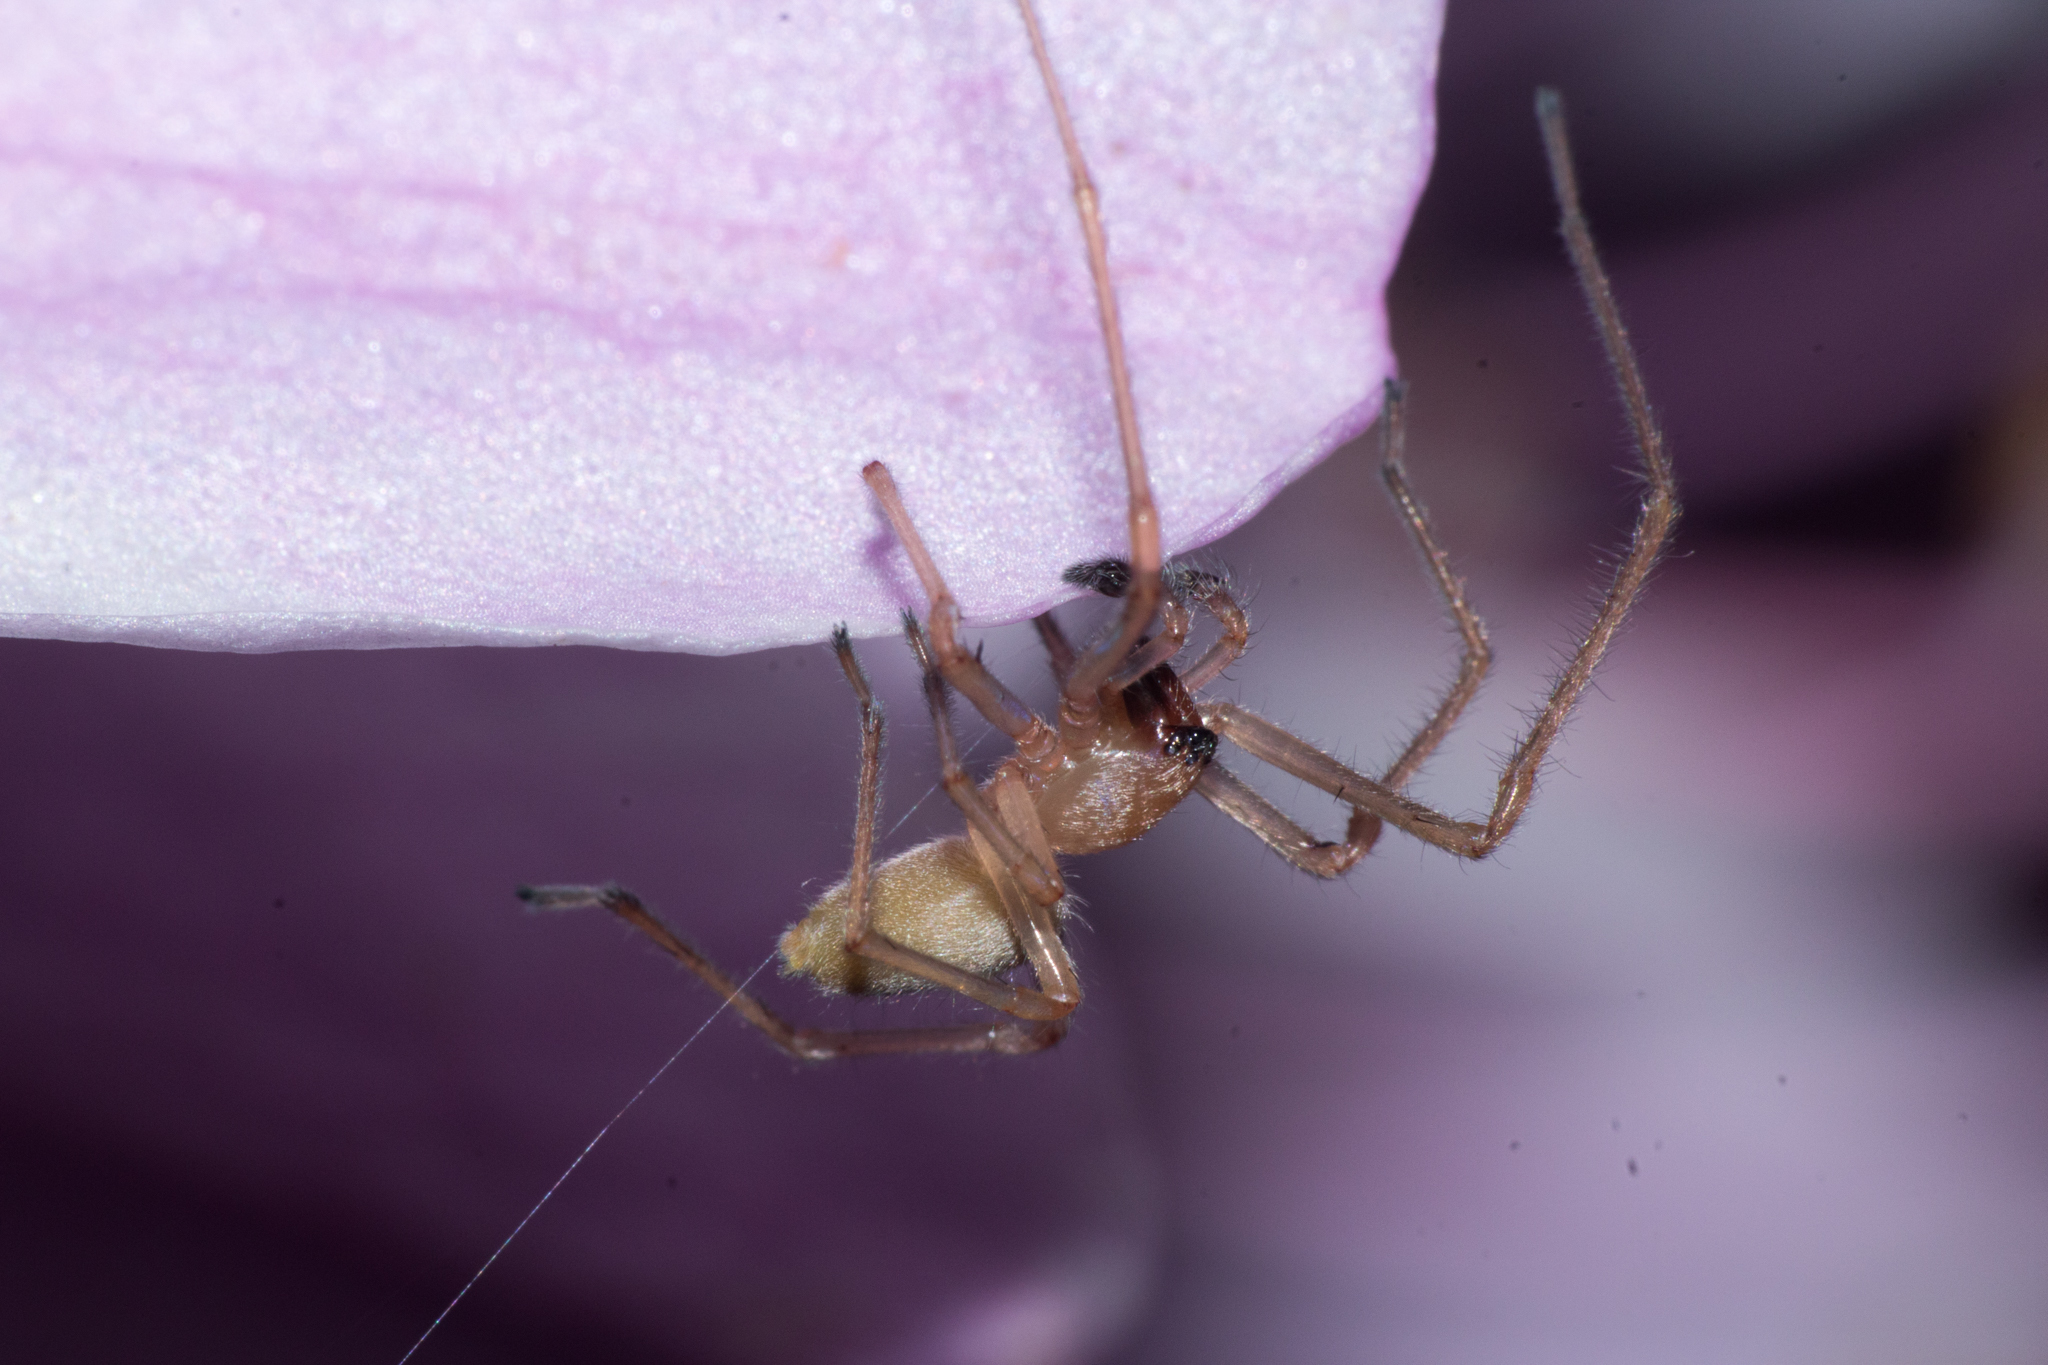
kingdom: Animalia
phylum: Arthropoda
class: Arachnida
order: Araneae
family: Cheiracanthiidae
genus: Cheiracanthium
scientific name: Cheiracanthium inclusum
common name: Long-legged sac spiders
